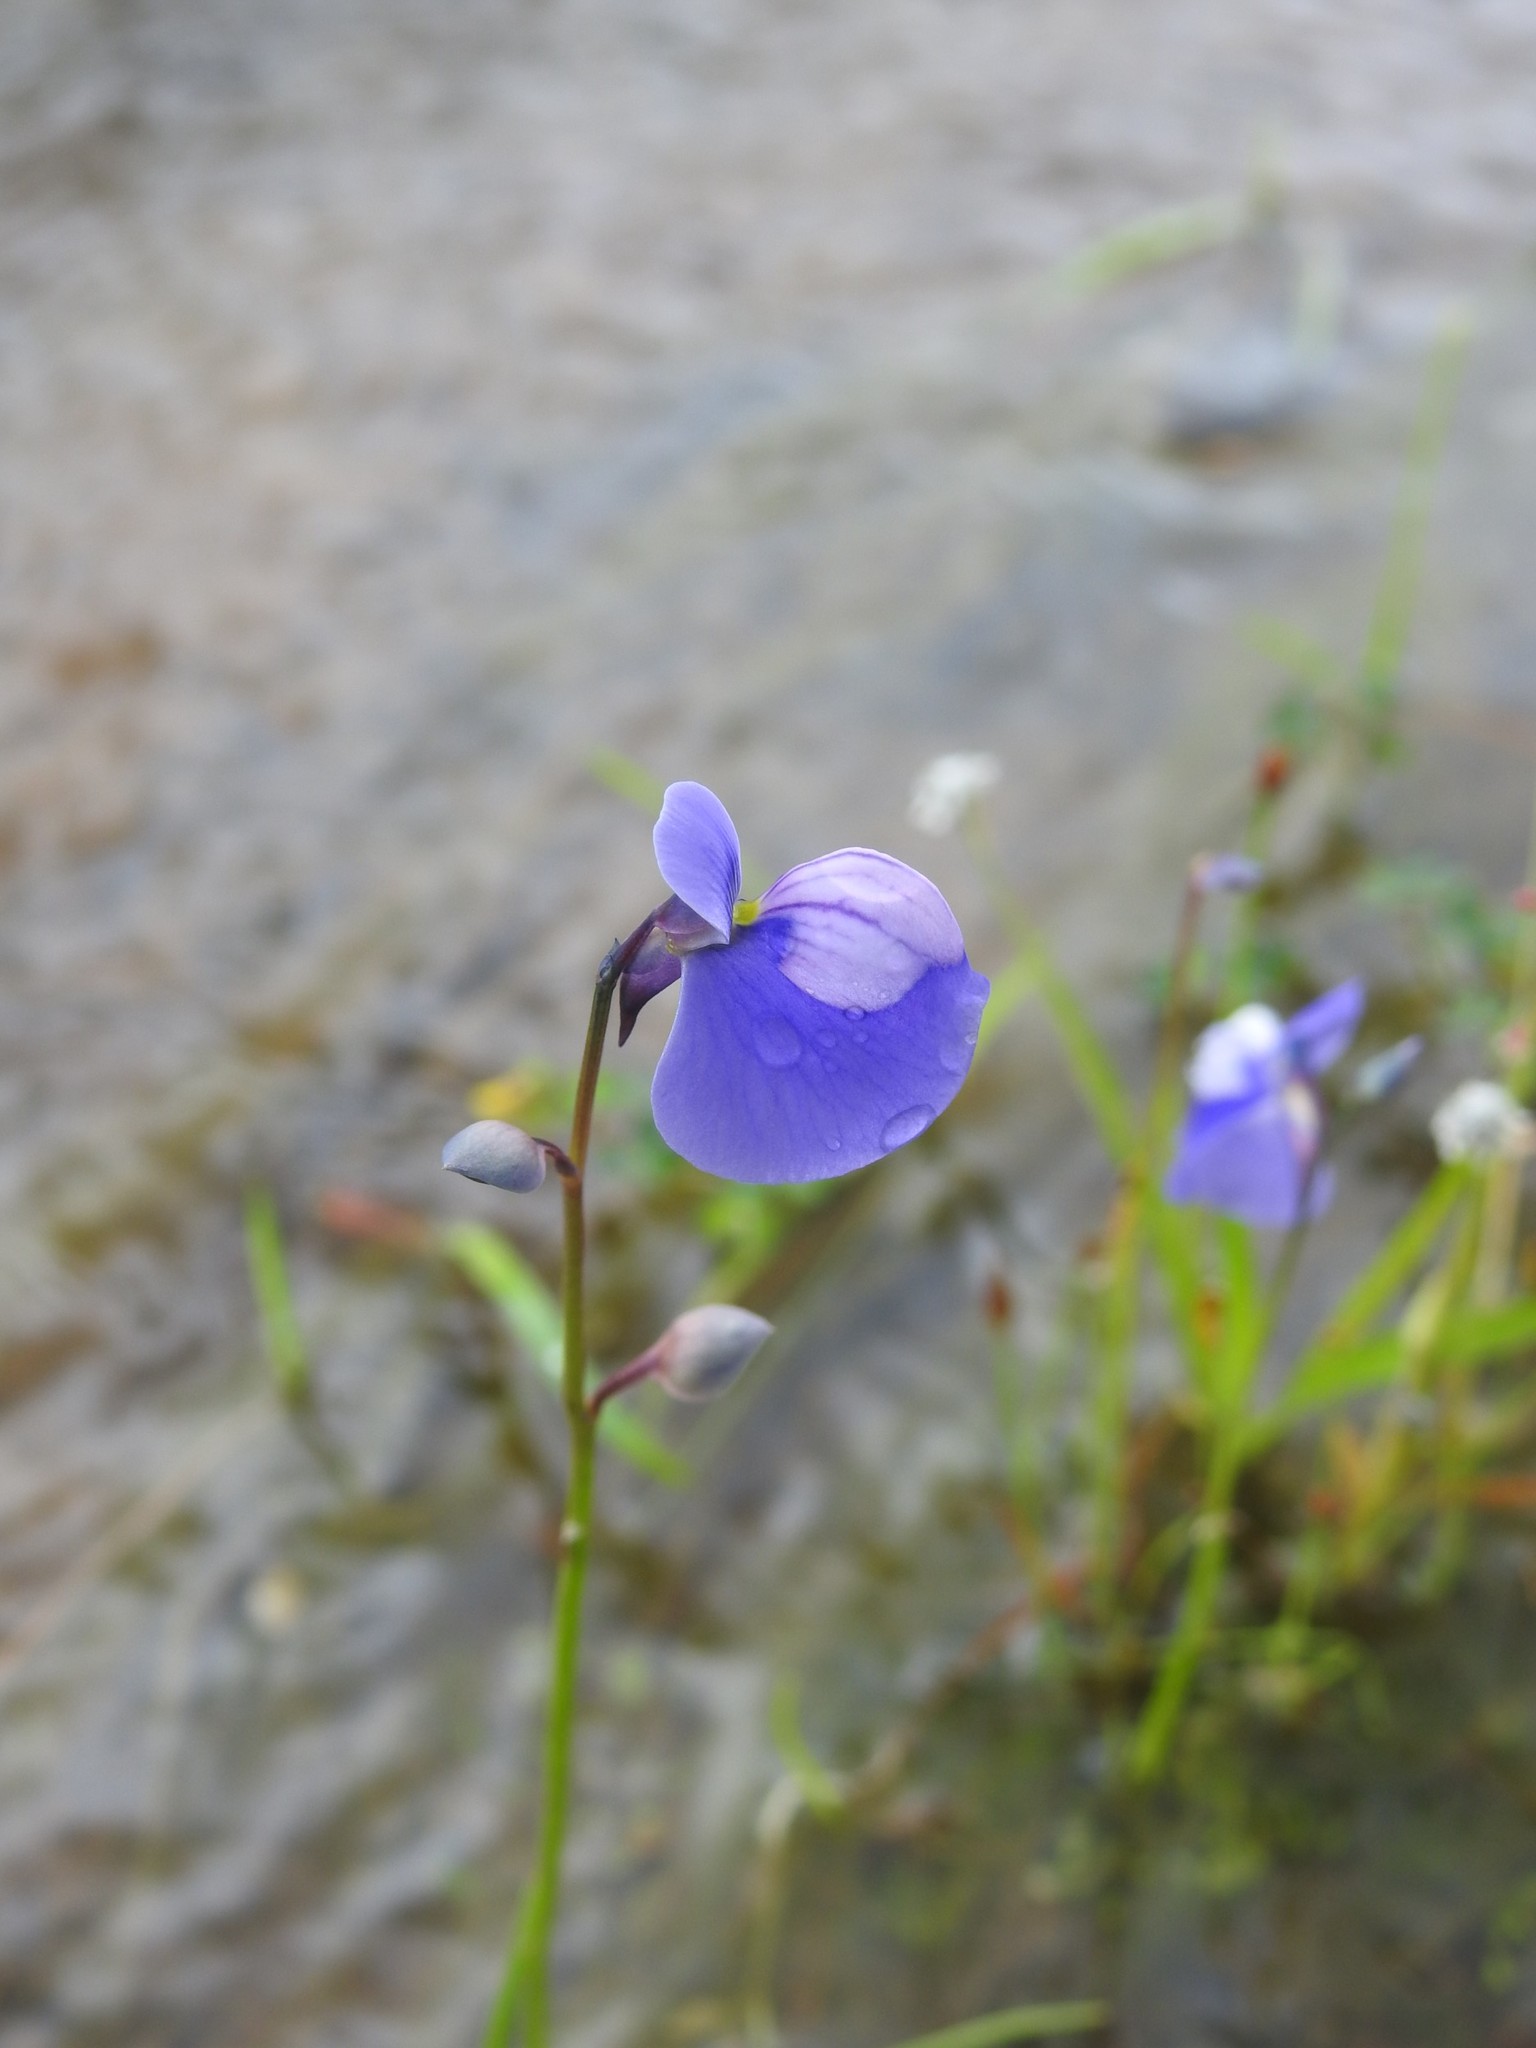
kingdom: Plantae
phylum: Tracheophyta
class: Magnoliopsida
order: Lamiales
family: Lentibulariaceae
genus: Utricularia
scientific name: Utricularia cecilii
